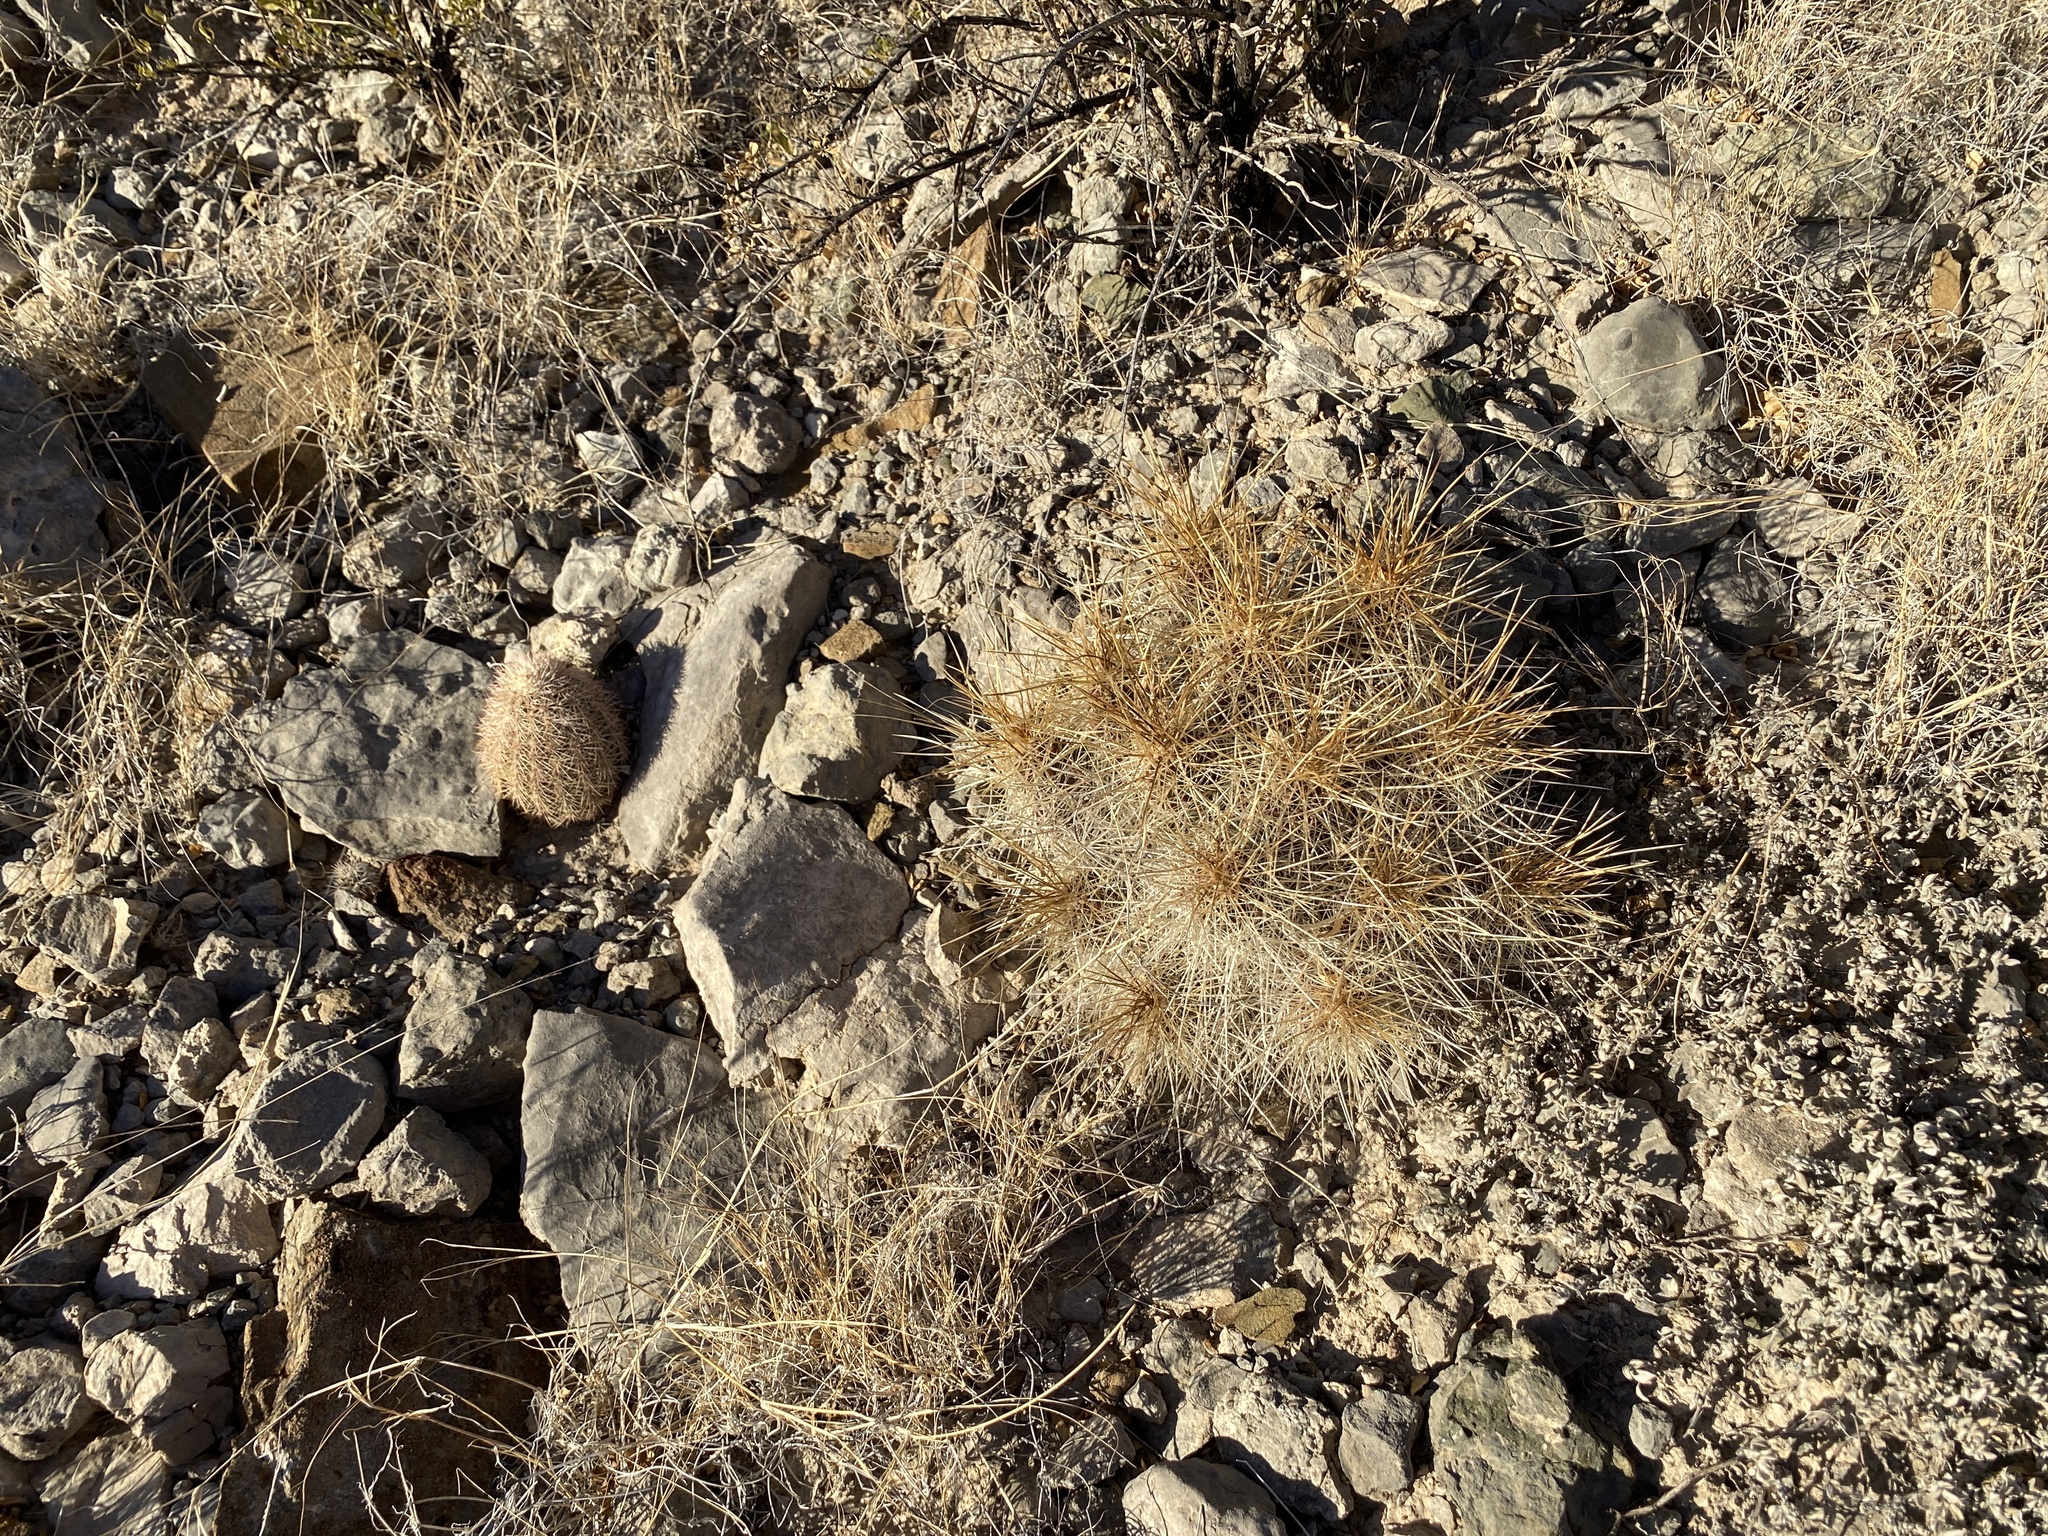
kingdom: Plantae
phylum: Tracheophyta
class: Magnoliopsida
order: Caryophyllales
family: Cactaceae
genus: Echinocereus
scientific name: Echinocereus stramineus
